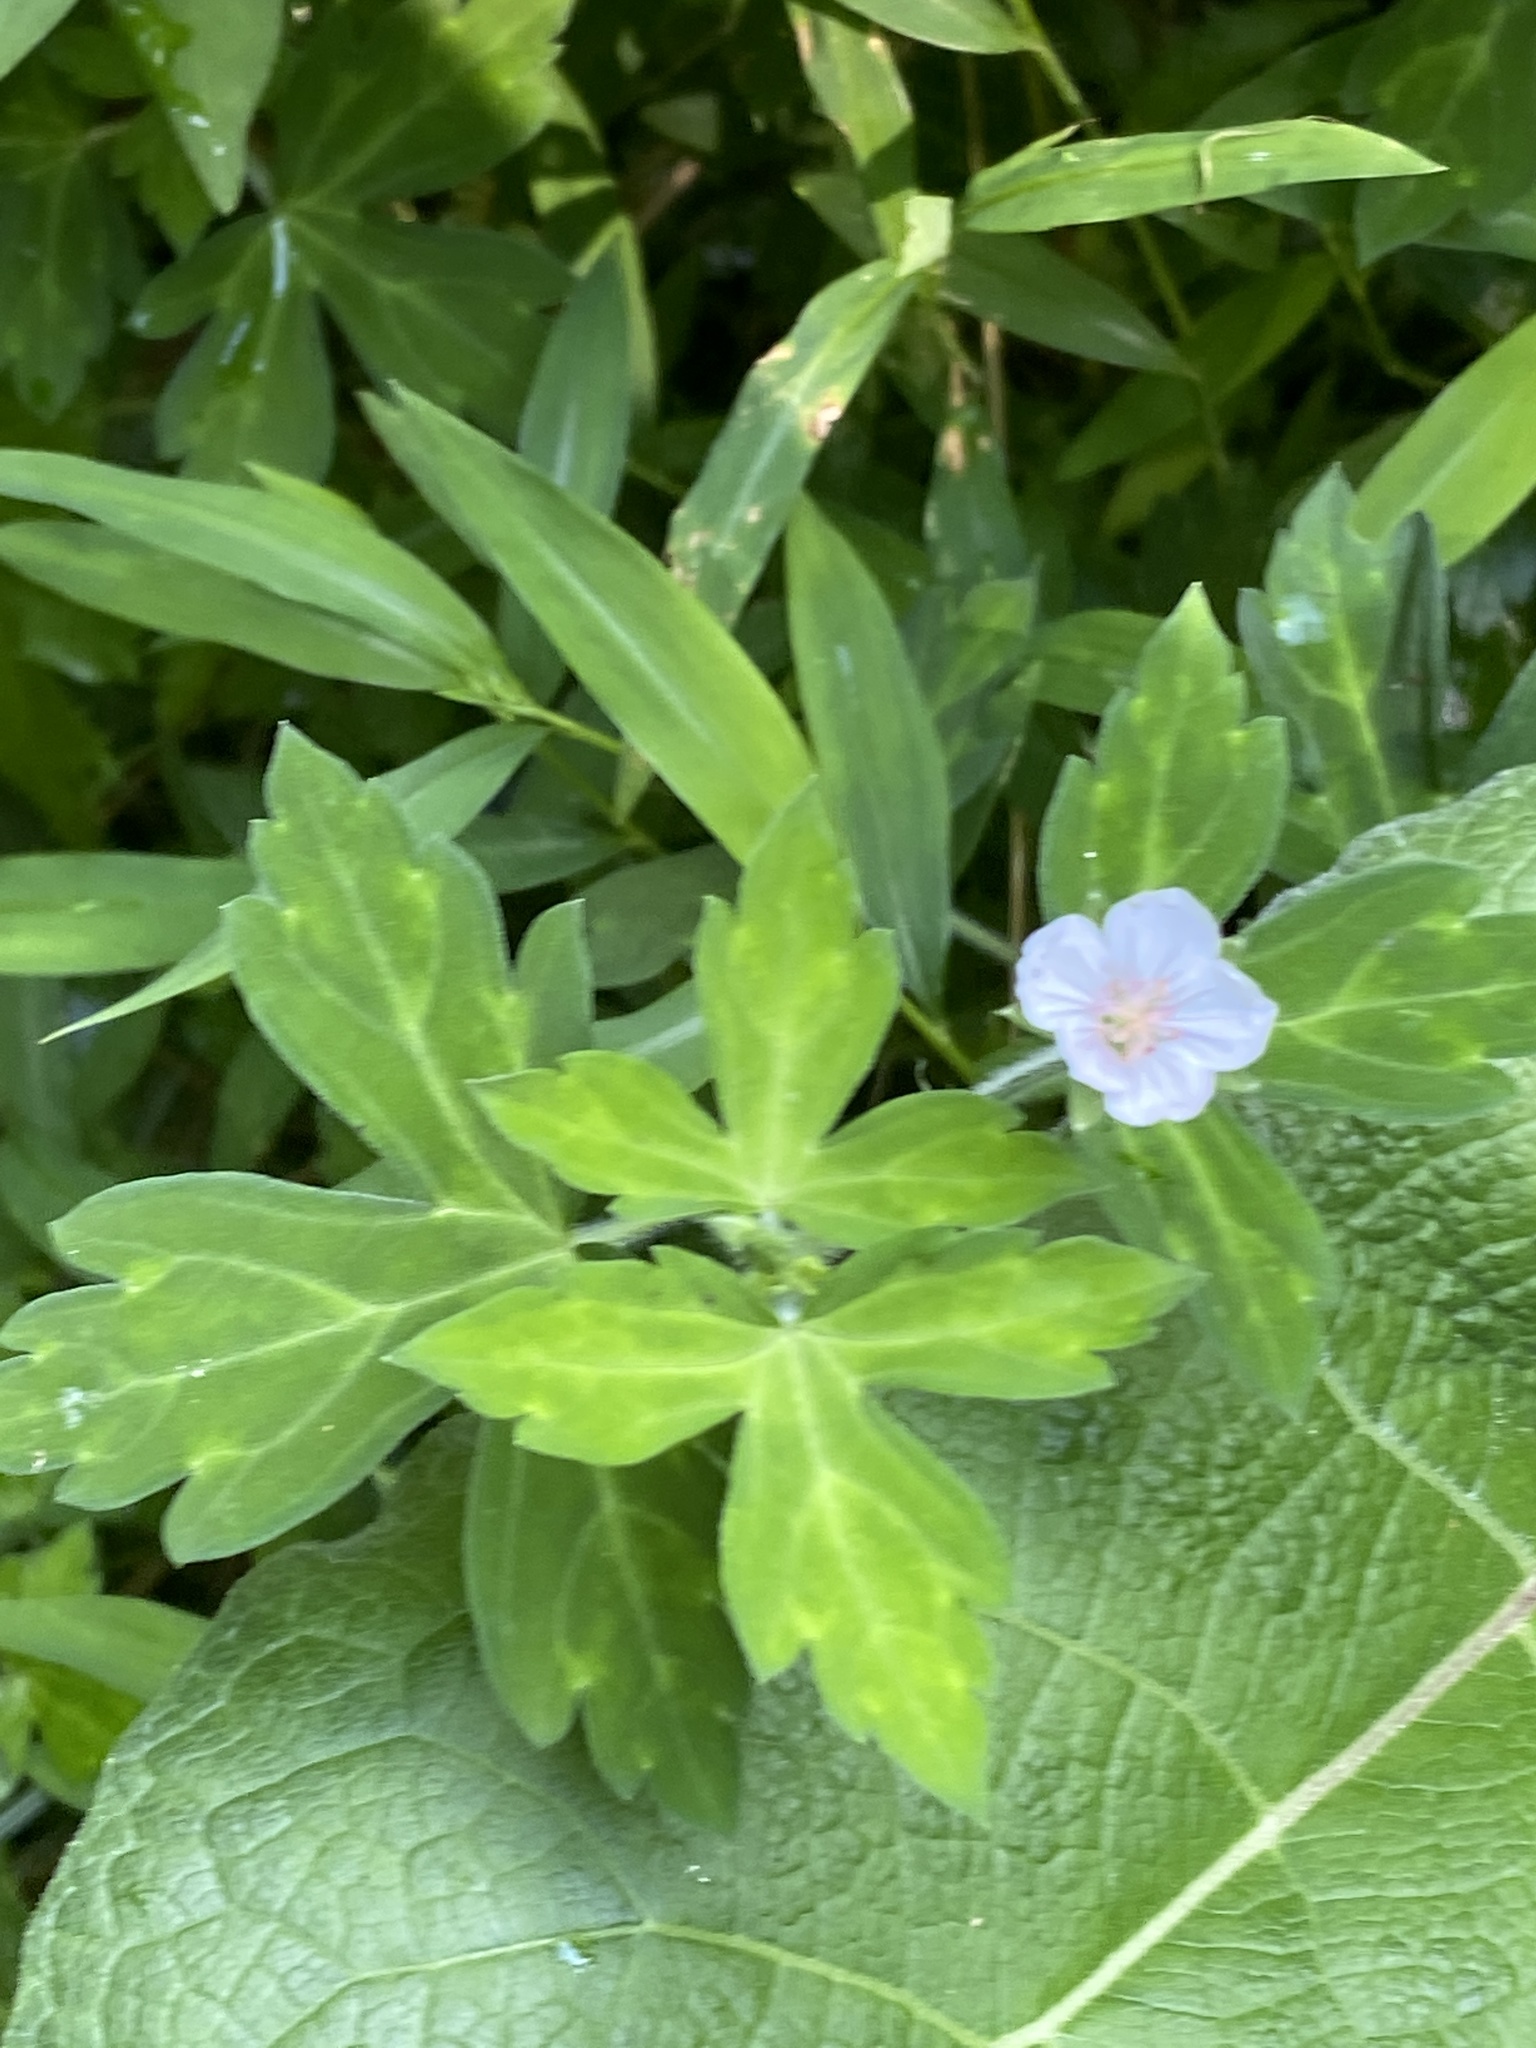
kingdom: Plantae
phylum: Tracheophyta
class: Magnoliopsida
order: Geraniales
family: Geraniaceae
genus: Geranium
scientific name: Geranium thunbergii
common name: Dewdrop crane's-bill
